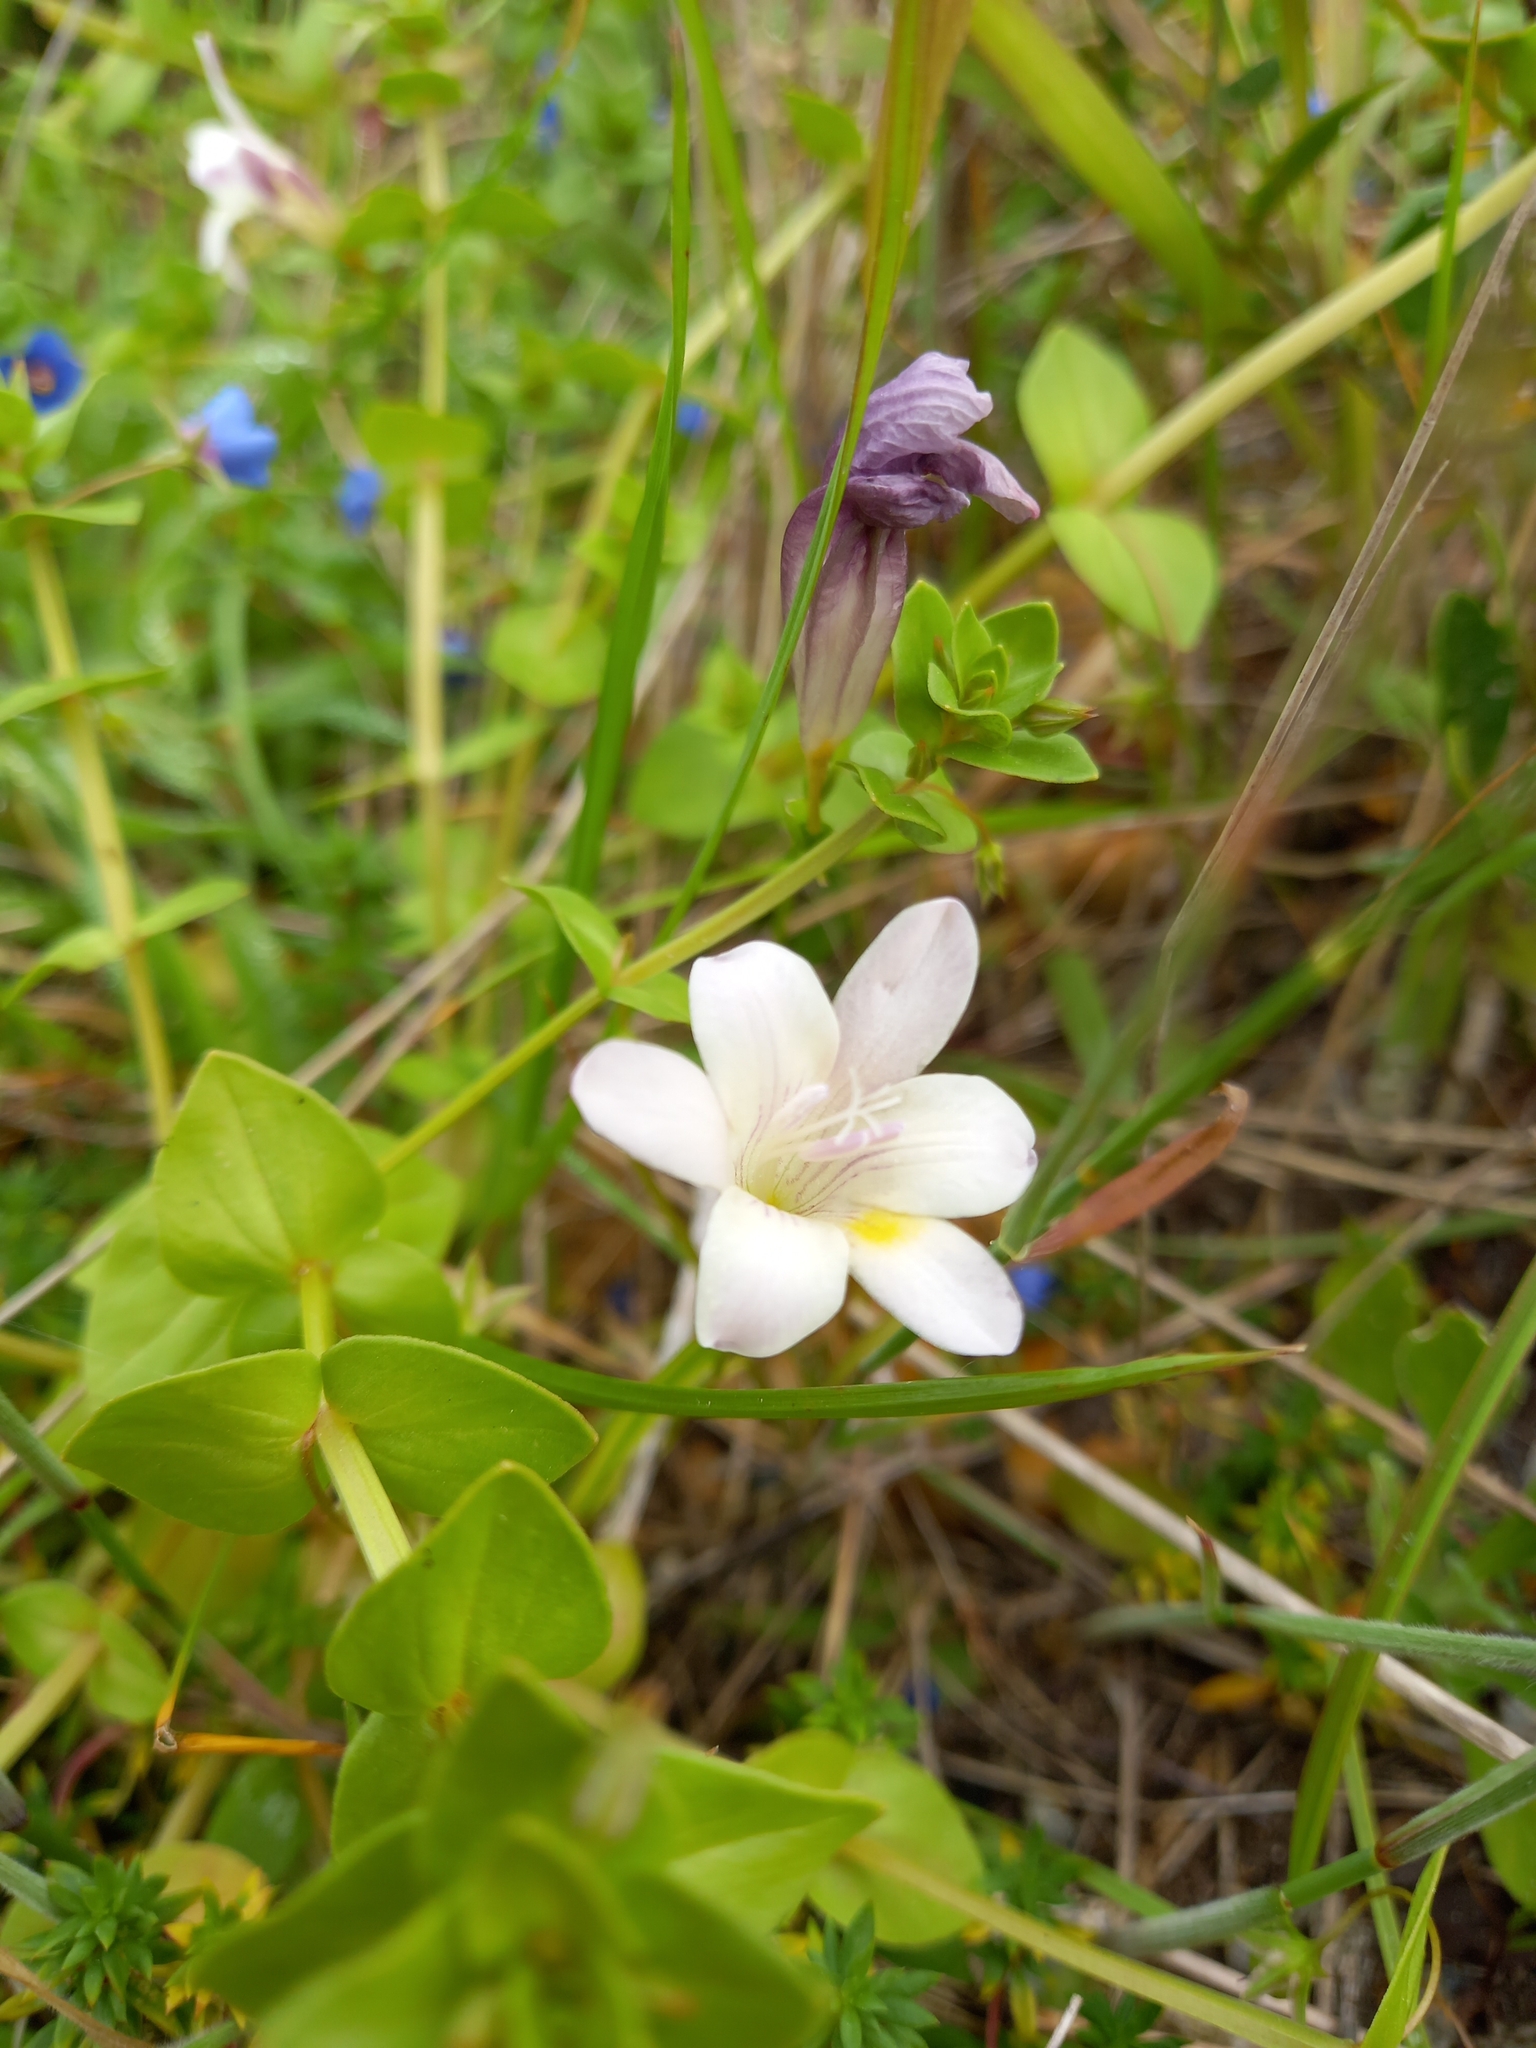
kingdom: Plantae
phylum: Tracheophyta
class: Liliopsida
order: Asparagales
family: Iridaceae
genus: Freesia
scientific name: Freesia leichtlinii
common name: Freesia
